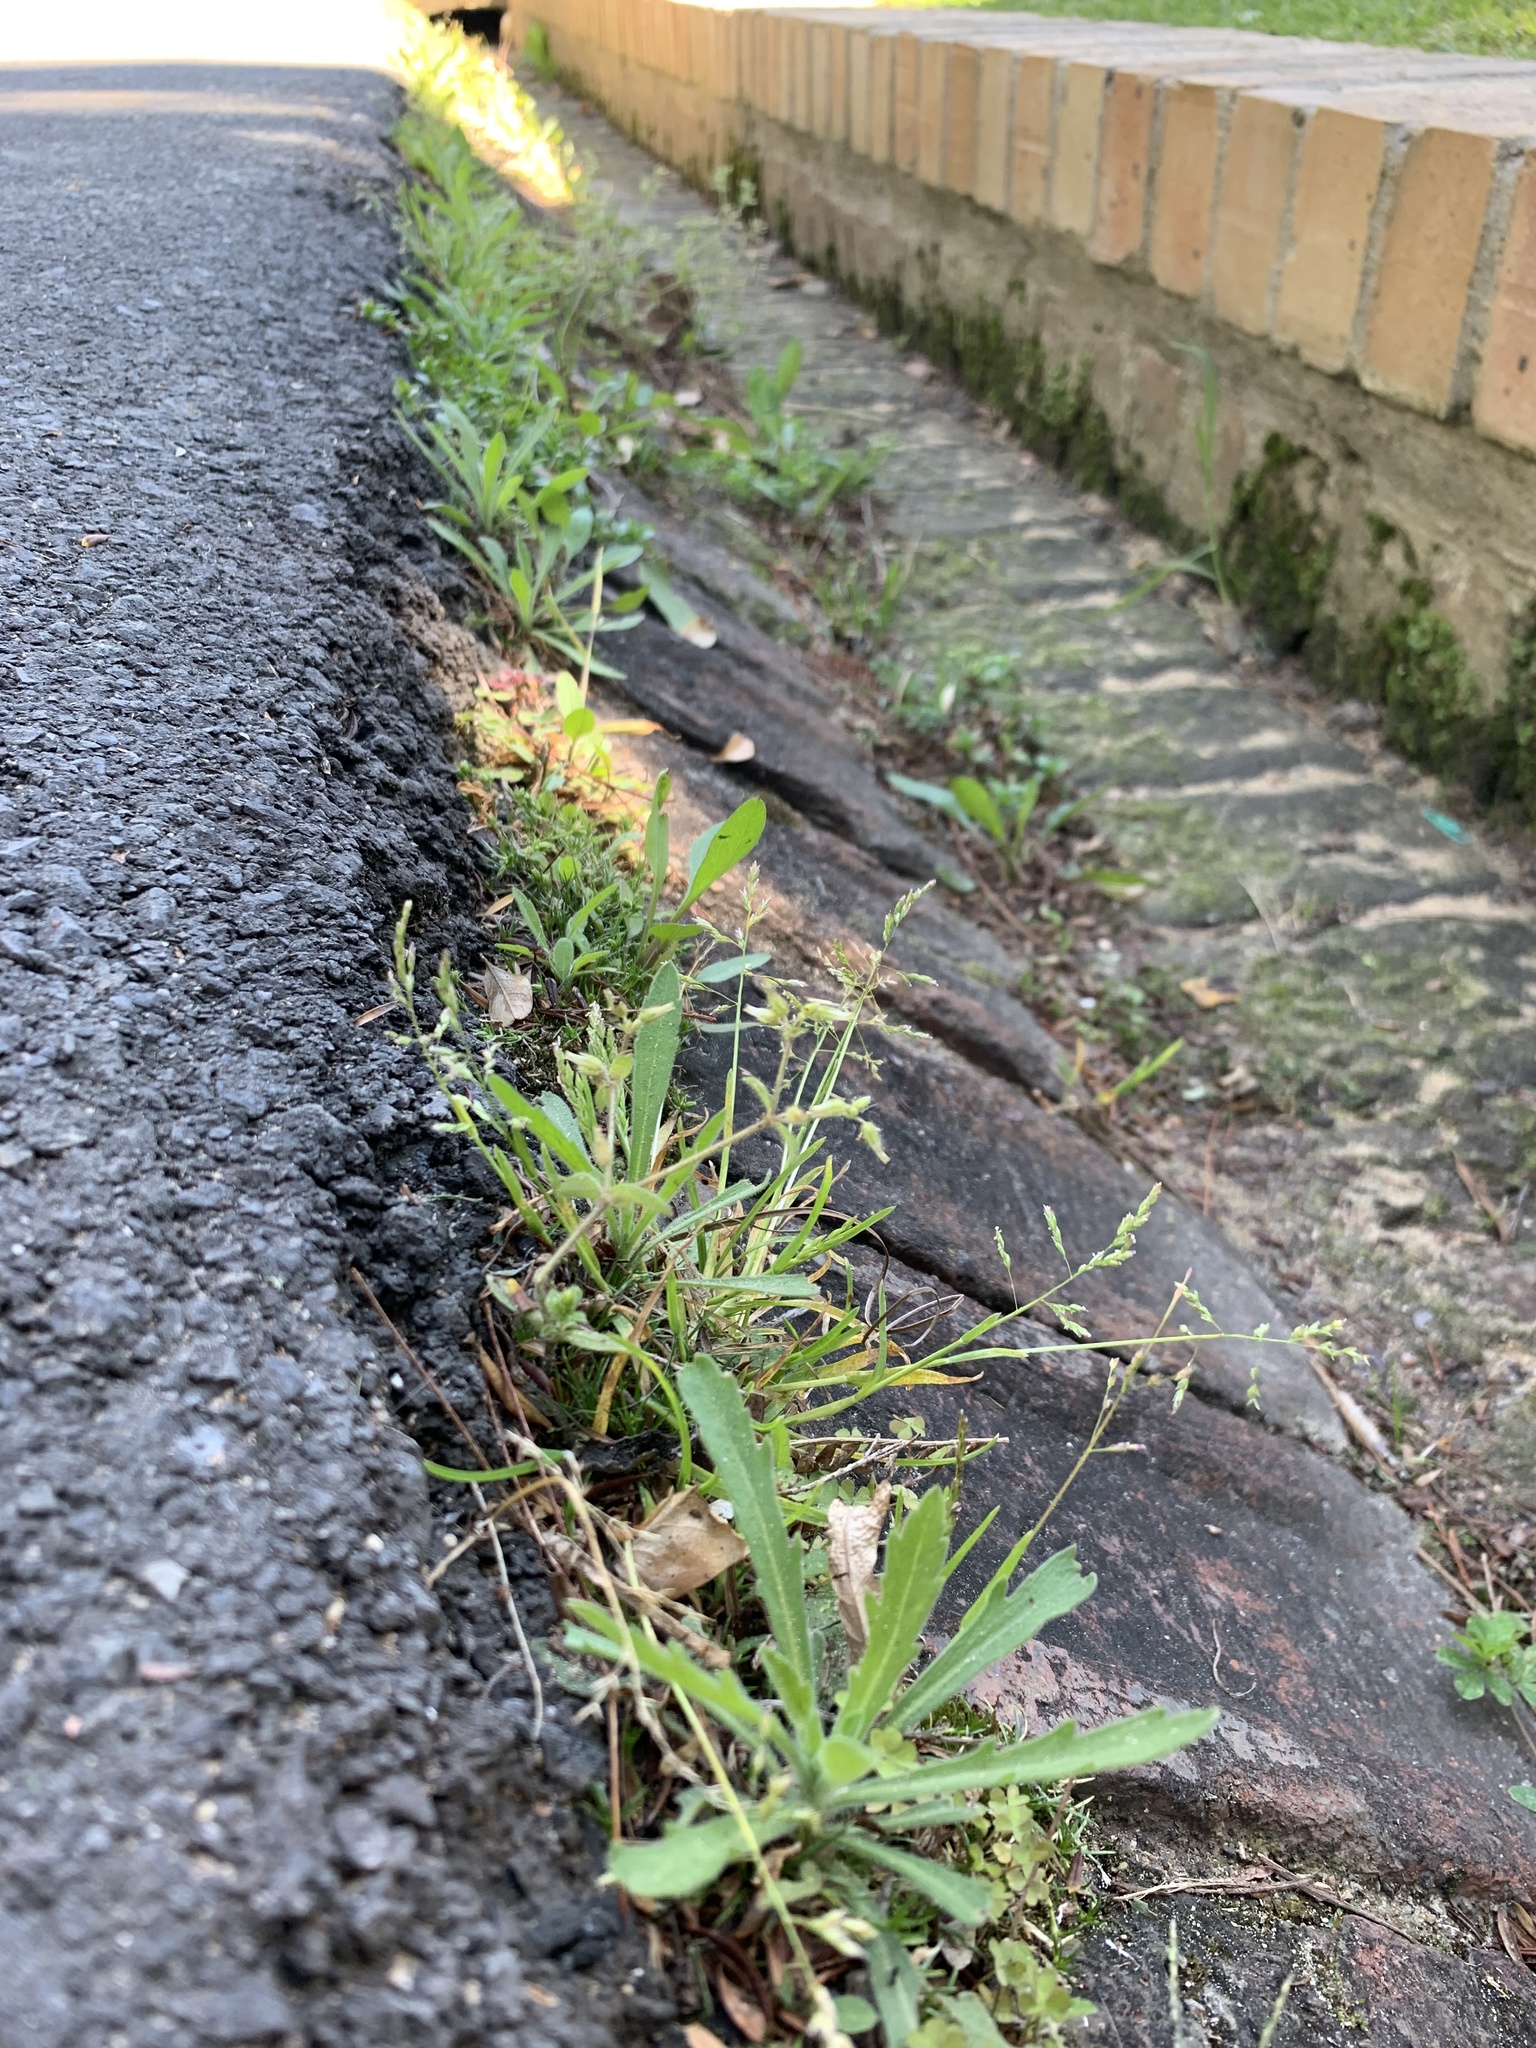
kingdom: Plantae
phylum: Tracheophyta
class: Liliopsida
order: Poales
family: Poaceae
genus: Poa
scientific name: Poa annua
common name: Annual bluegrass
